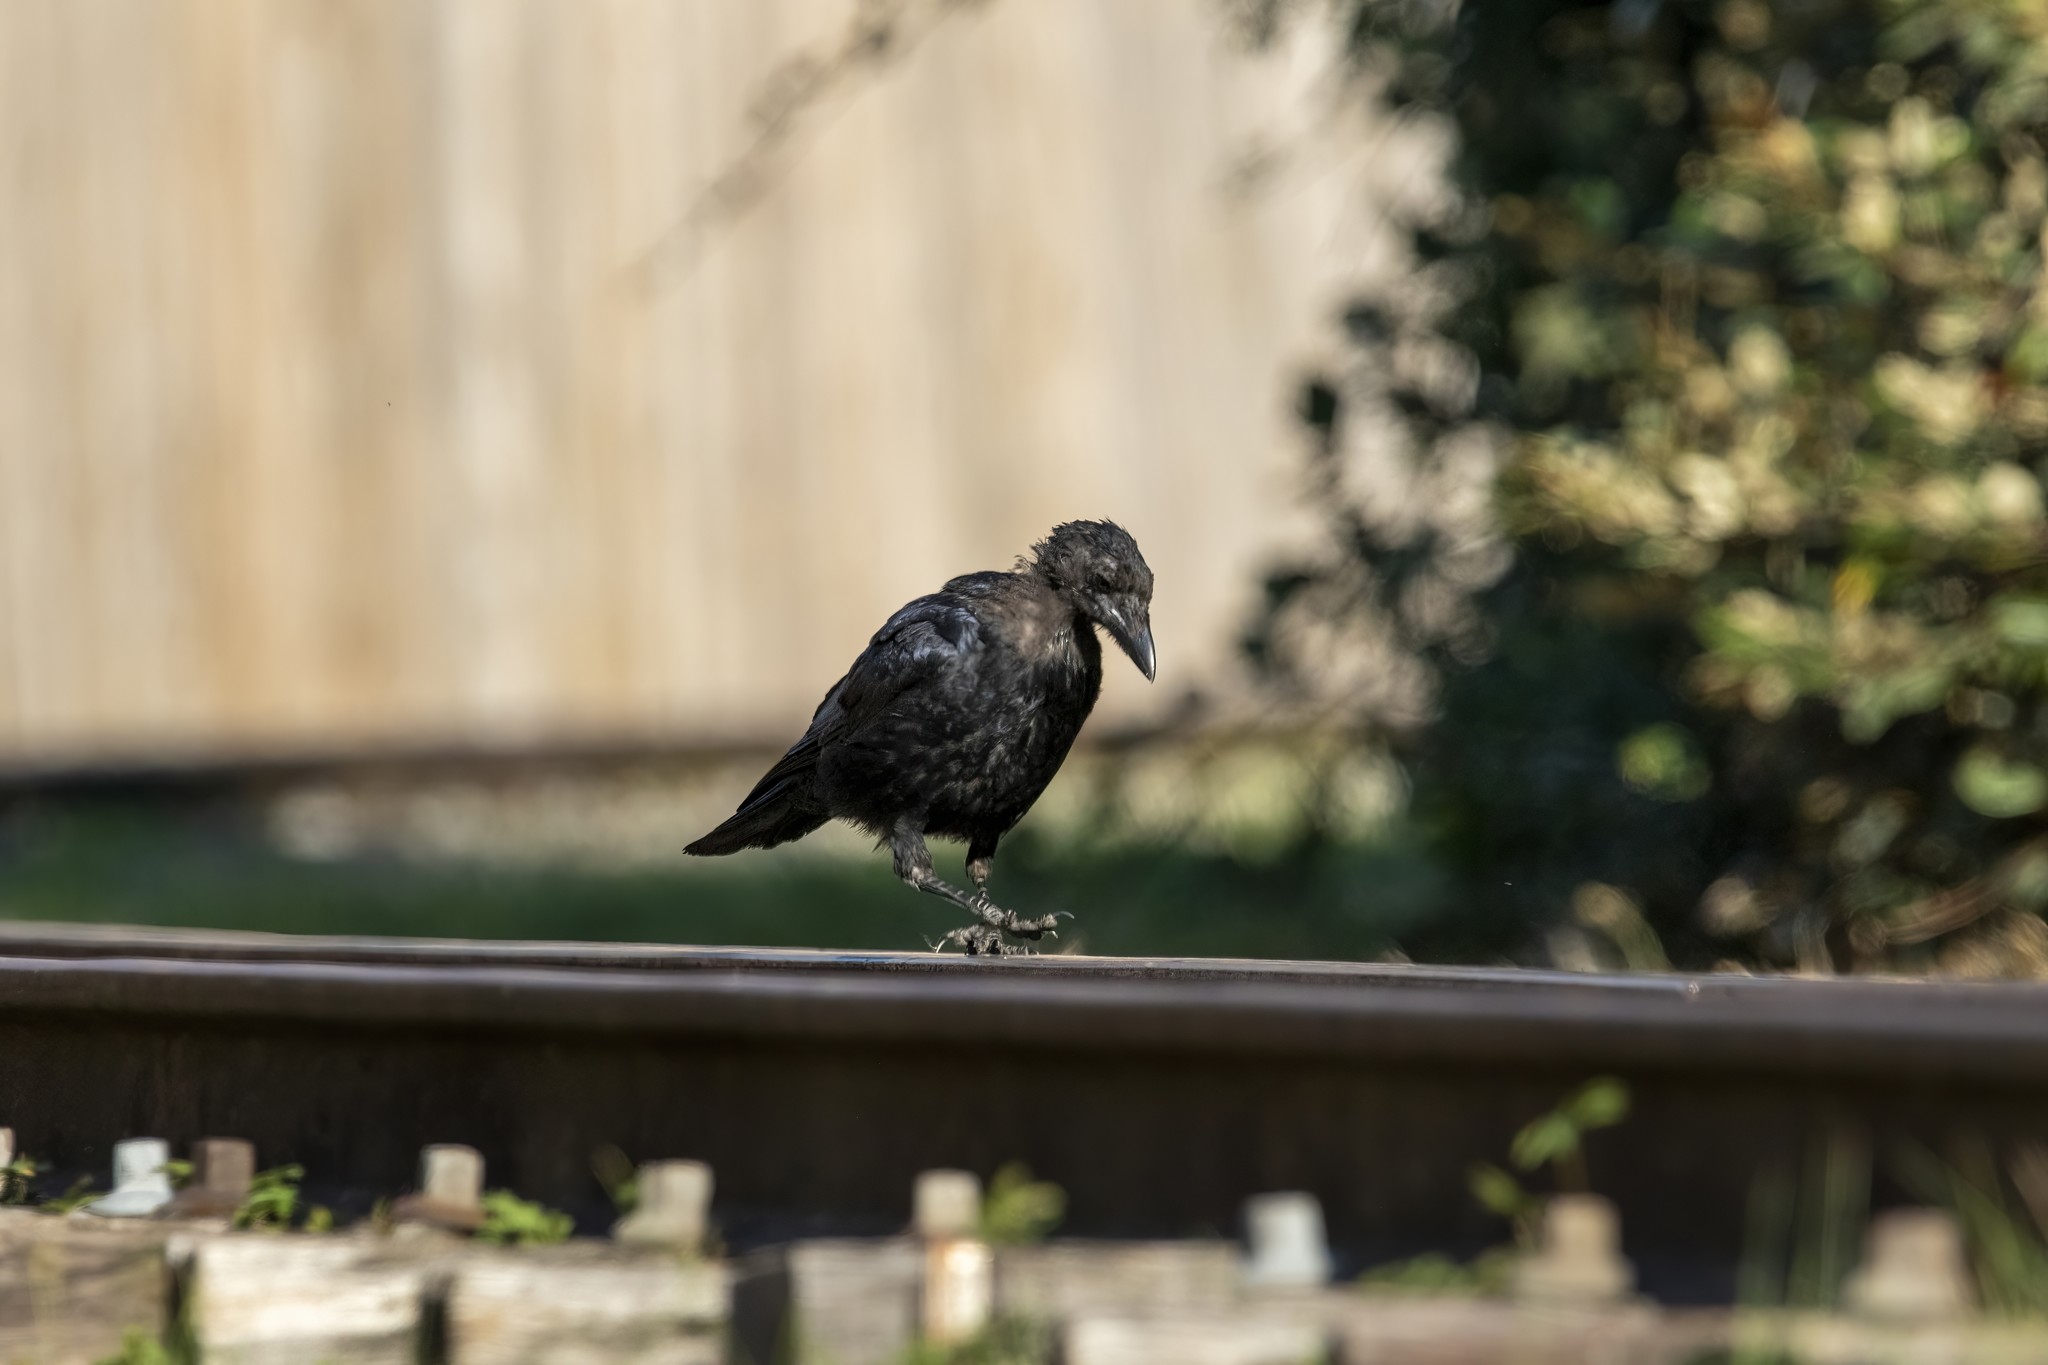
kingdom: Animalia
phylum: Chordata
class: Aves
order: Passeriformes
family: Corvidae
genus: Corvus
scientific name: Corvus corone
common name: Carrion crow
